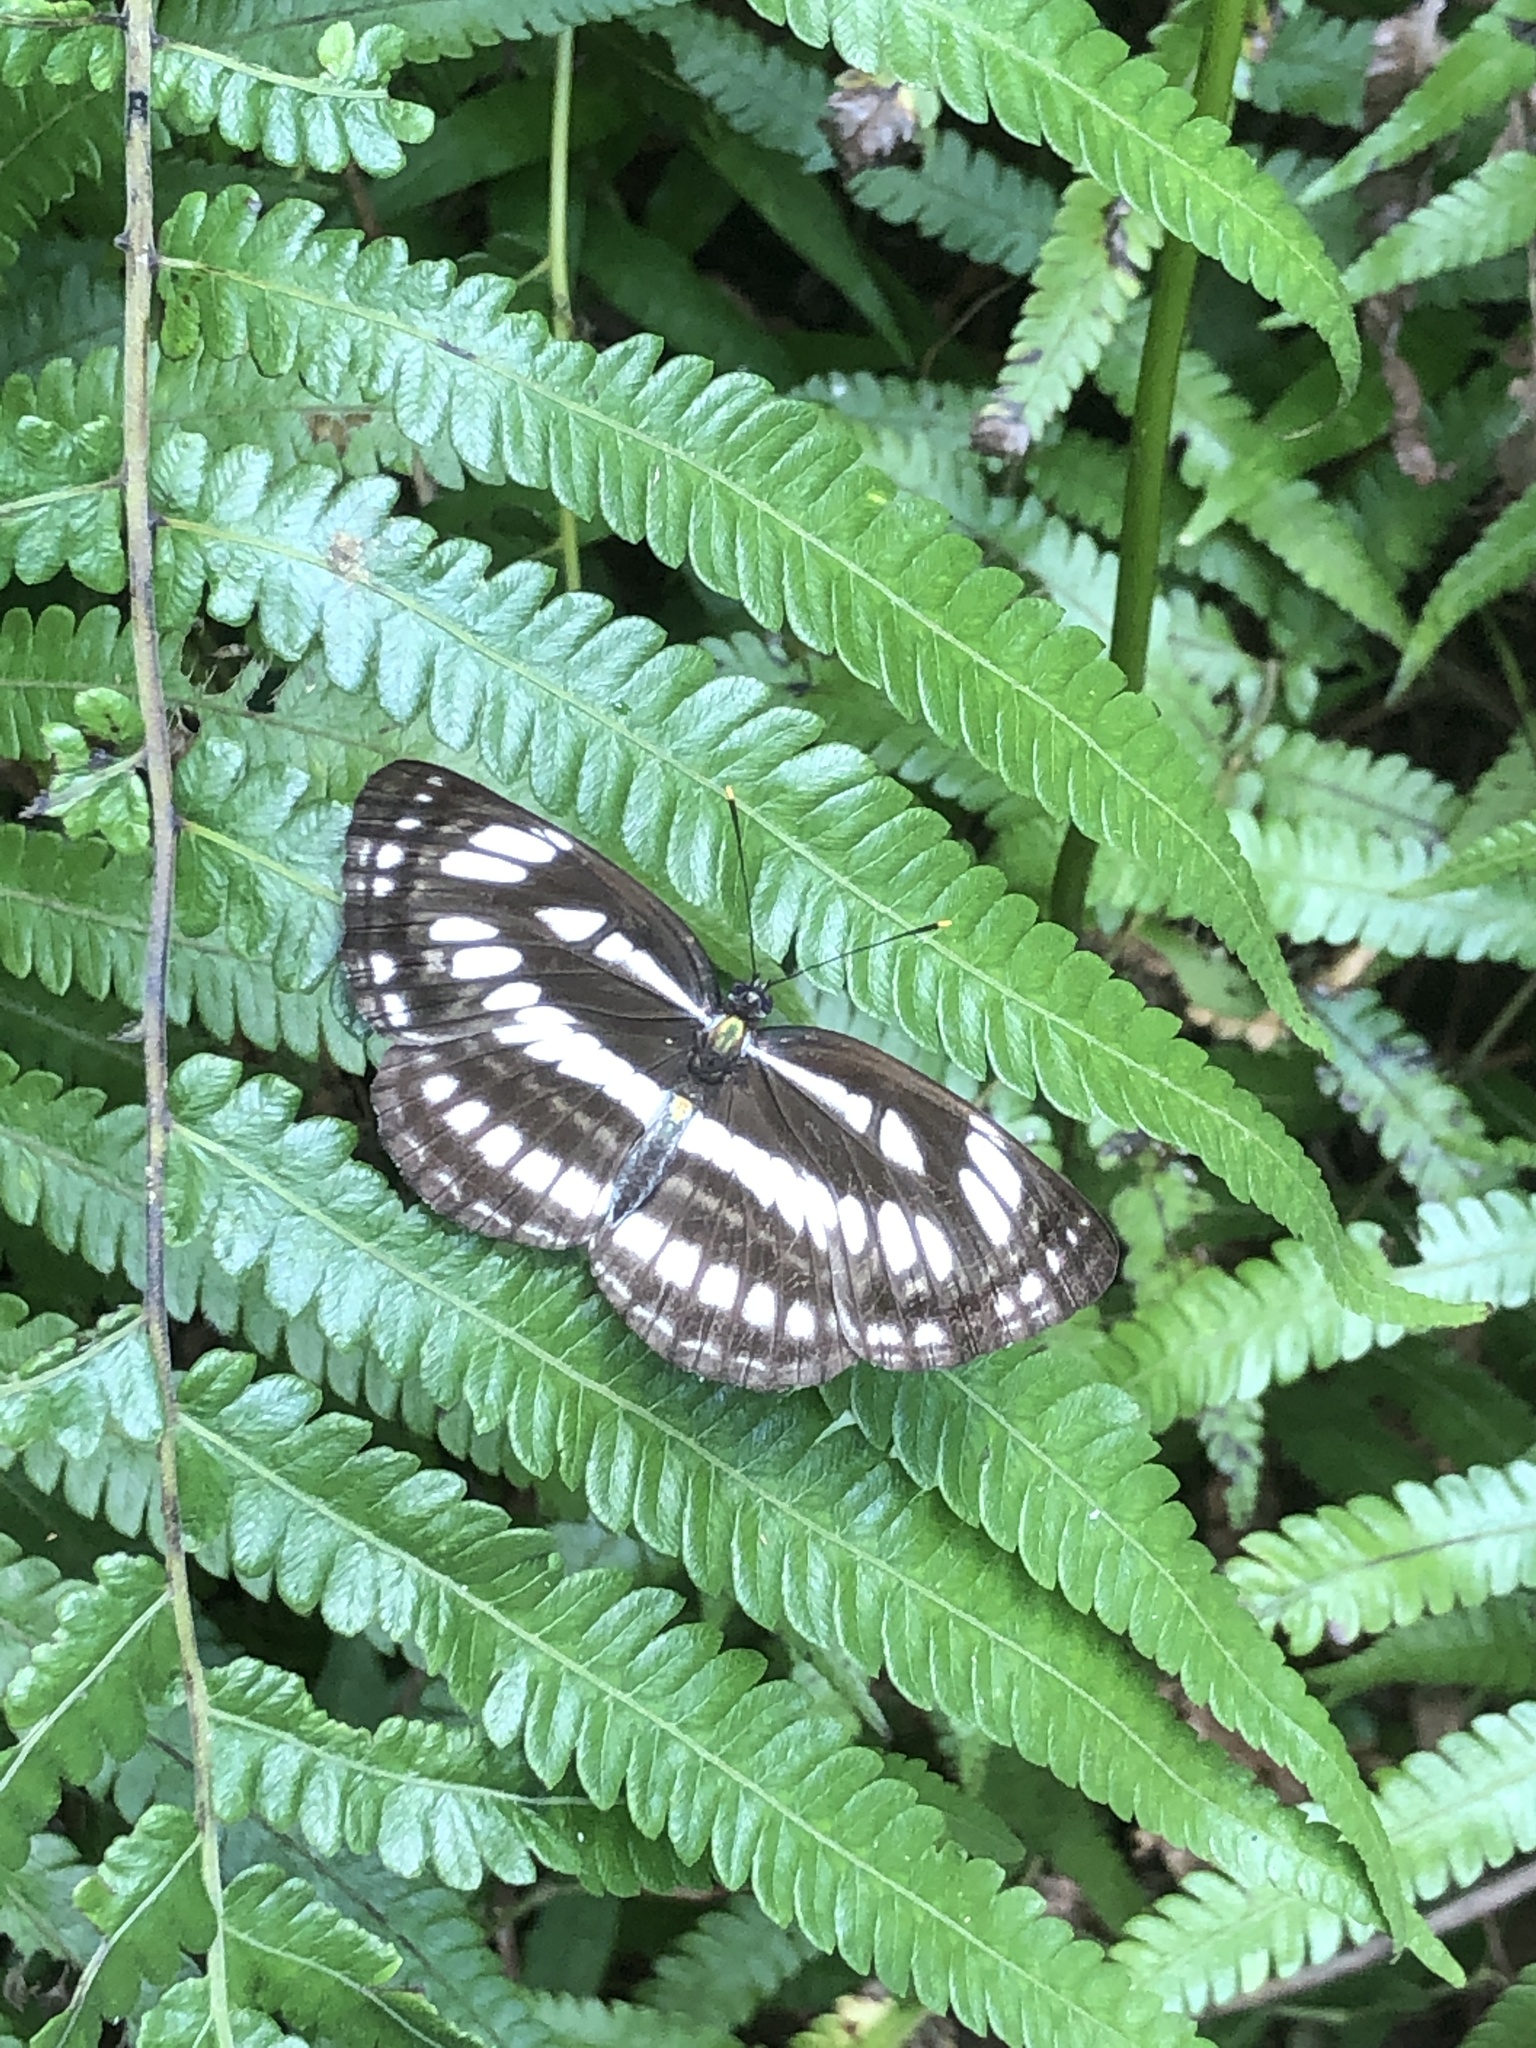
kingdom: Animalia
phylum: Arthropoda
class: Insecta
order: Lepidoptera
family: Nymphalidae
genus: Neptis
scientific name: Neptis hylas
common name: Common sailer
